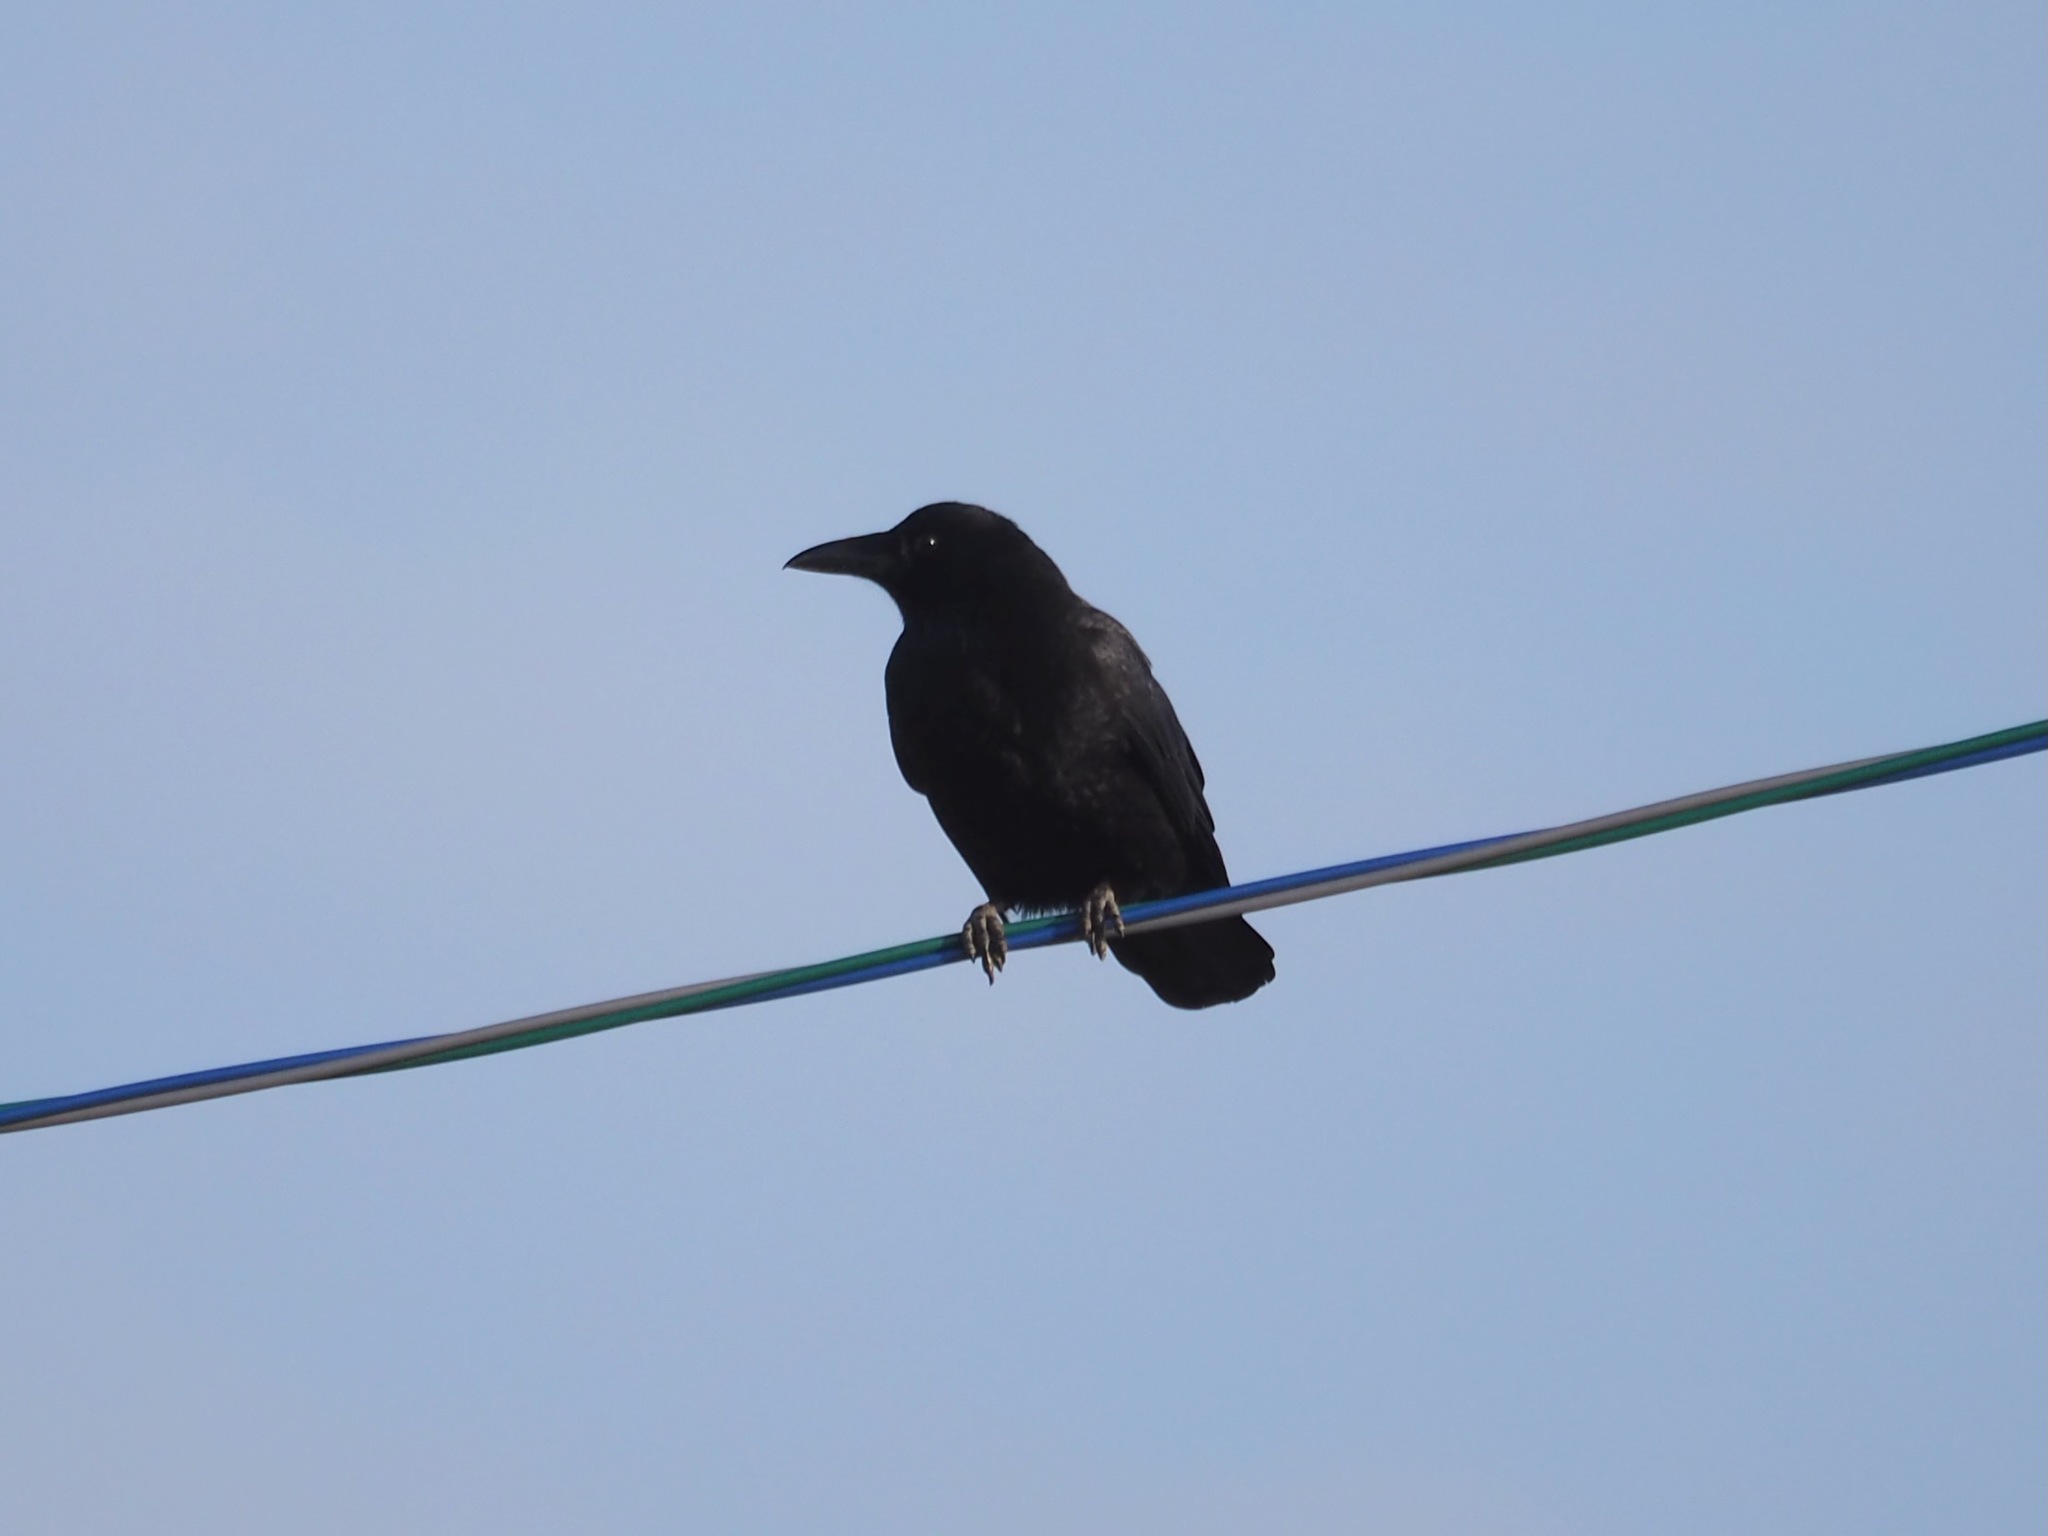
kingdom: Animalia
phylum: Chordata
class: Aves
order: Passeriformes
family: Corvidae
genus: Corvus
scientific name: Corvus corone
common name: Carrion crow
